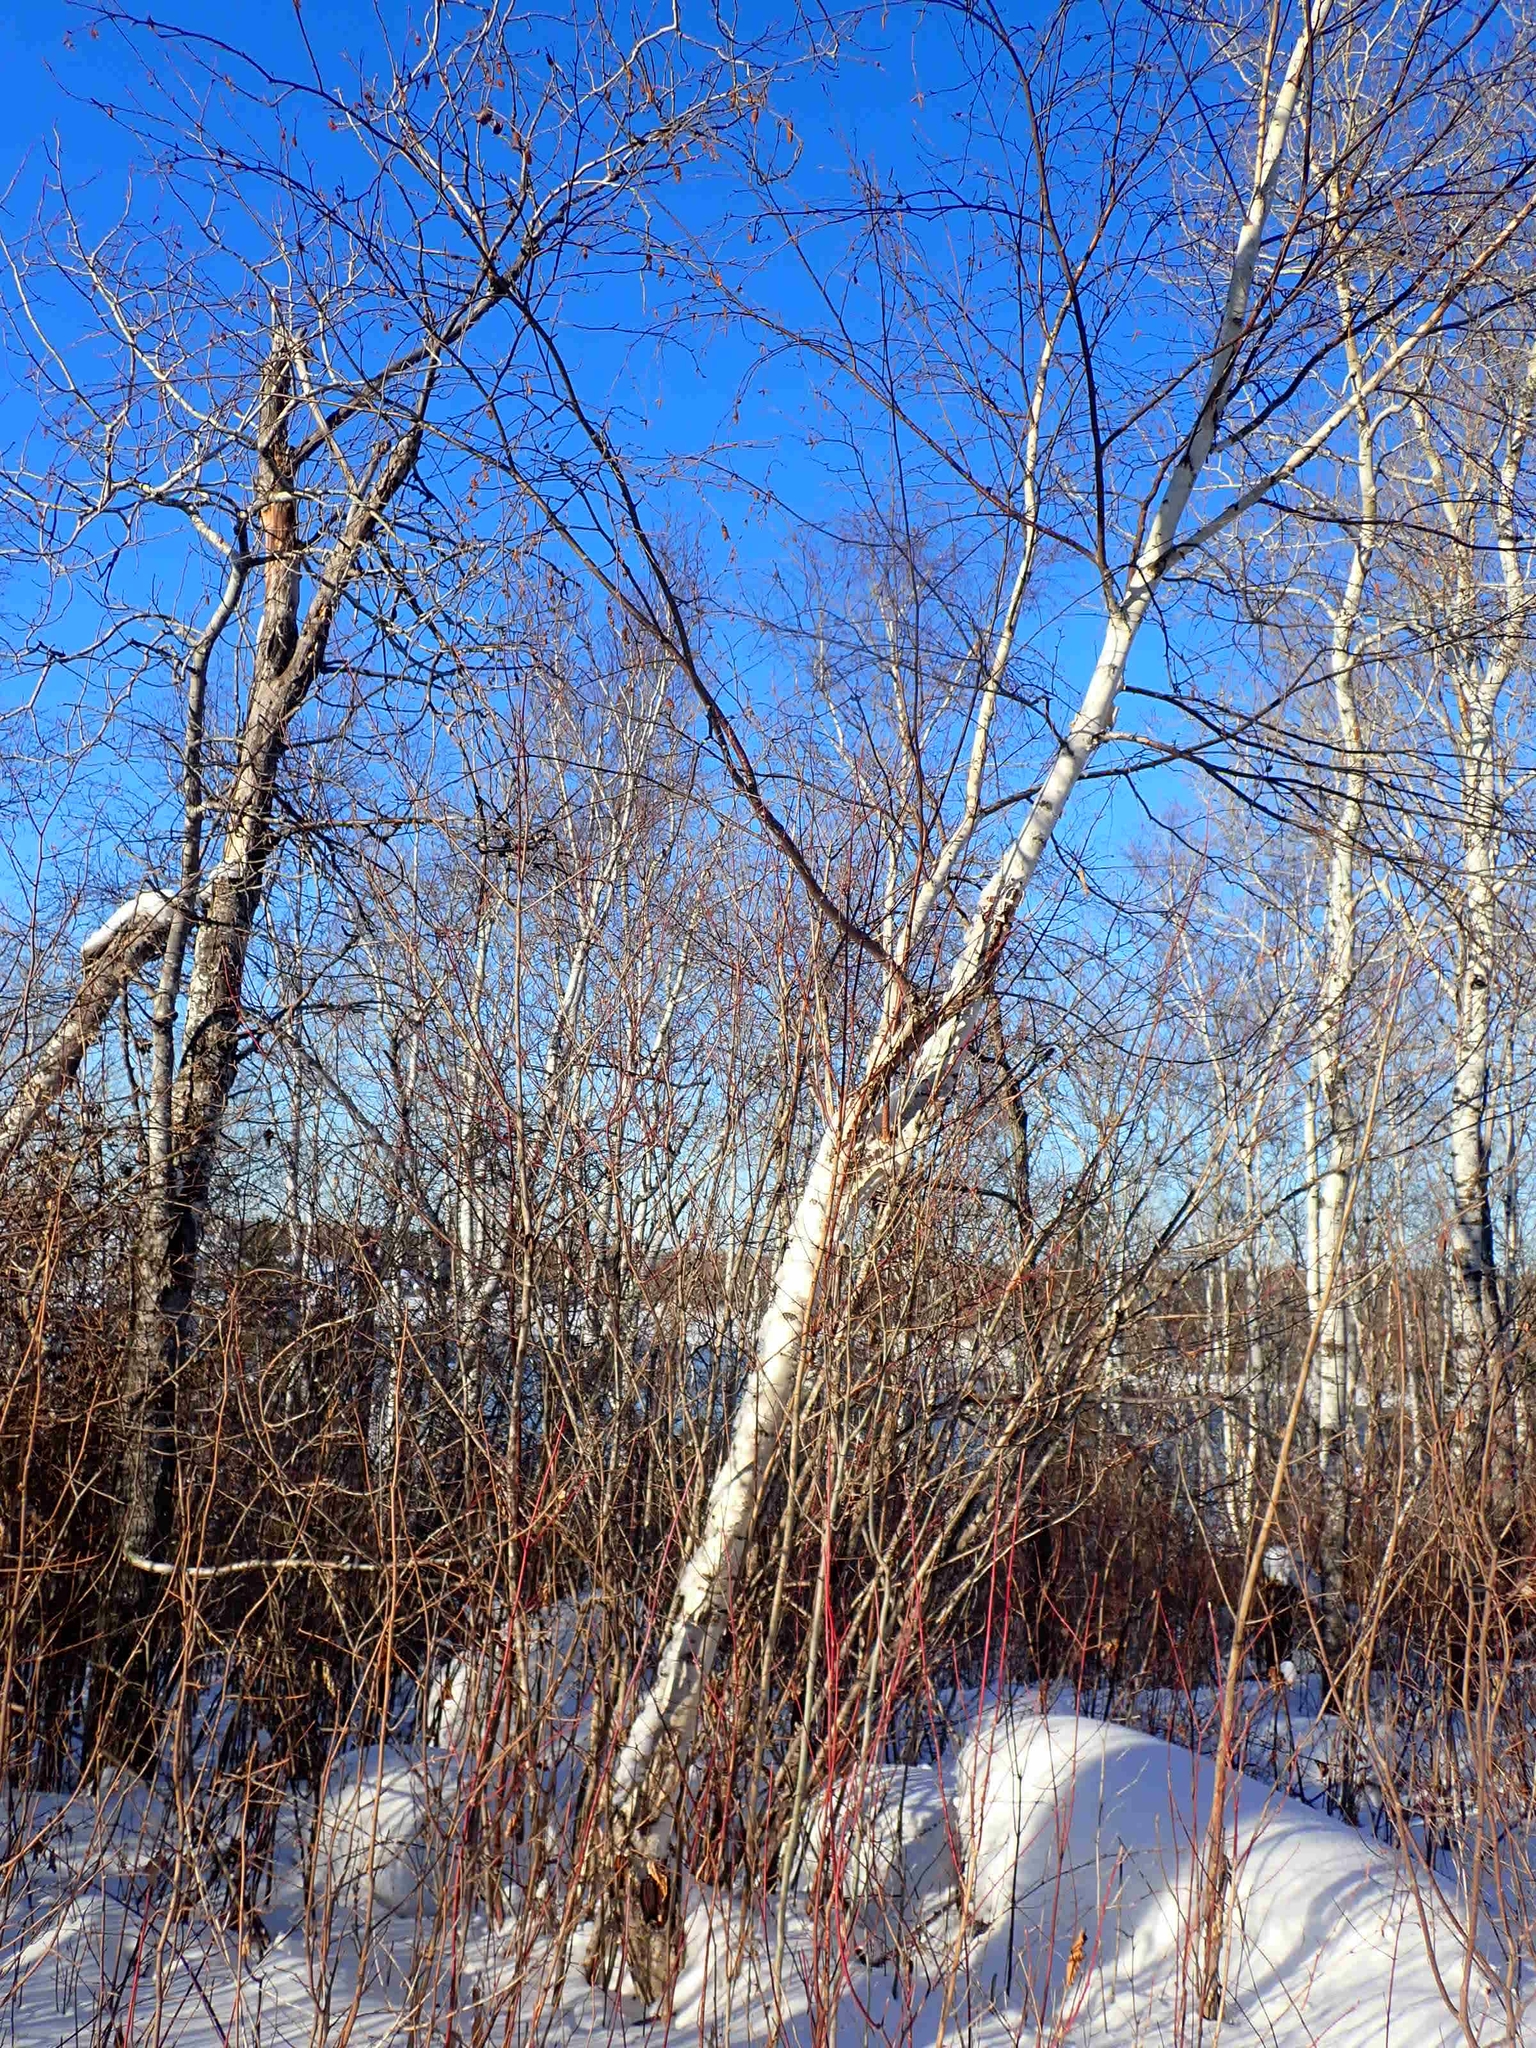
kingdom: Plantae
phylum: Tracheophyta
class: Magnoliopsida
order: Fagales
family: Betulaceae
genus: Betula
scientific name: Betula papyrifera
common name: Paper birch
